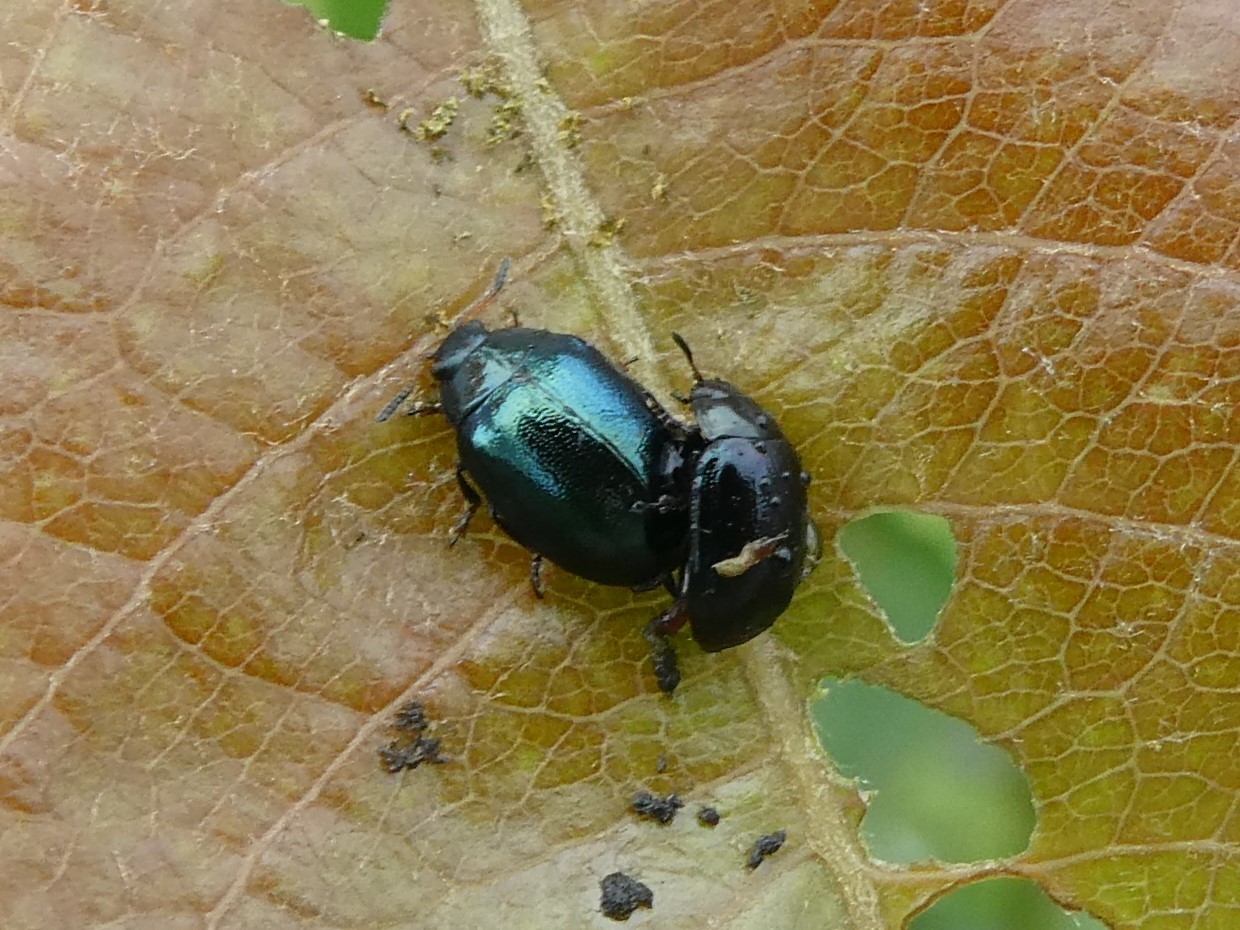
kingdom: Animalia
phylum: Arthropoda
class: Insecta
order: Coleoptera
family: Chrysomelidae
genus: Plagiodera
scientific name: Plagiodera versicolora
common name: Imported willow leaf beetle
